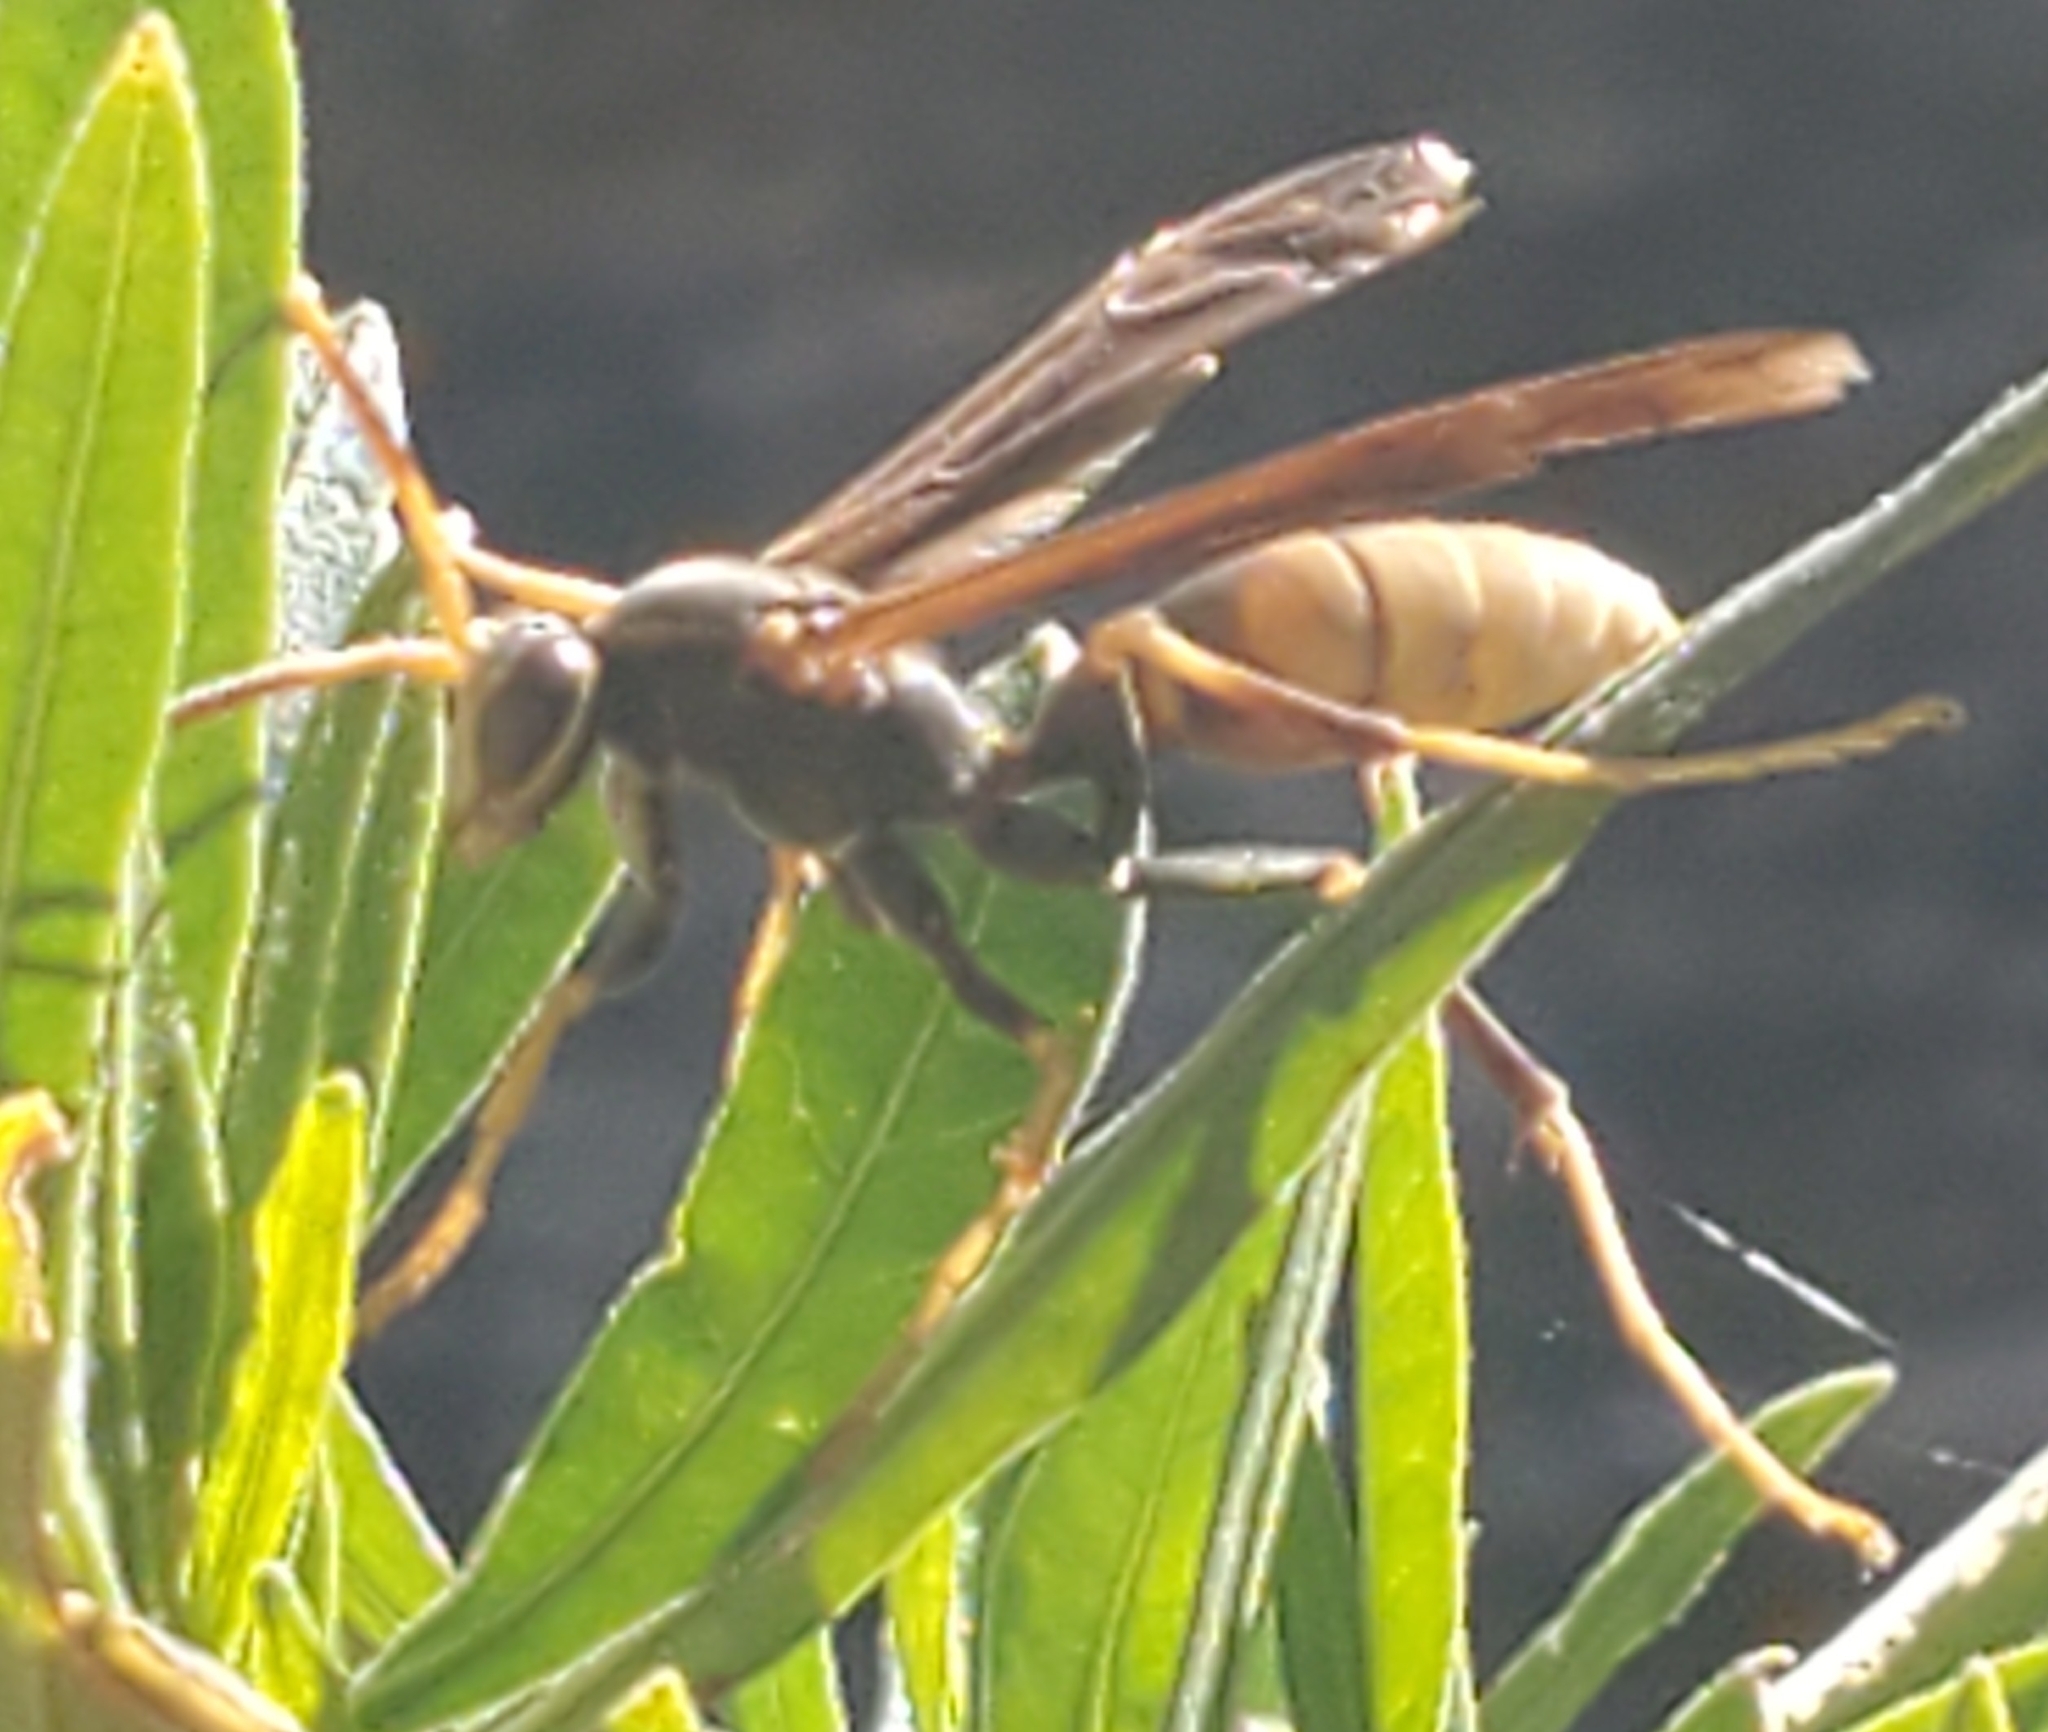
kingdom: Animalia
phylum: Arthropoda
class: Insecta
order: Hymenoptera
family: Eumenidae
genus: Polistes
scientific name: Polistes comanchus
